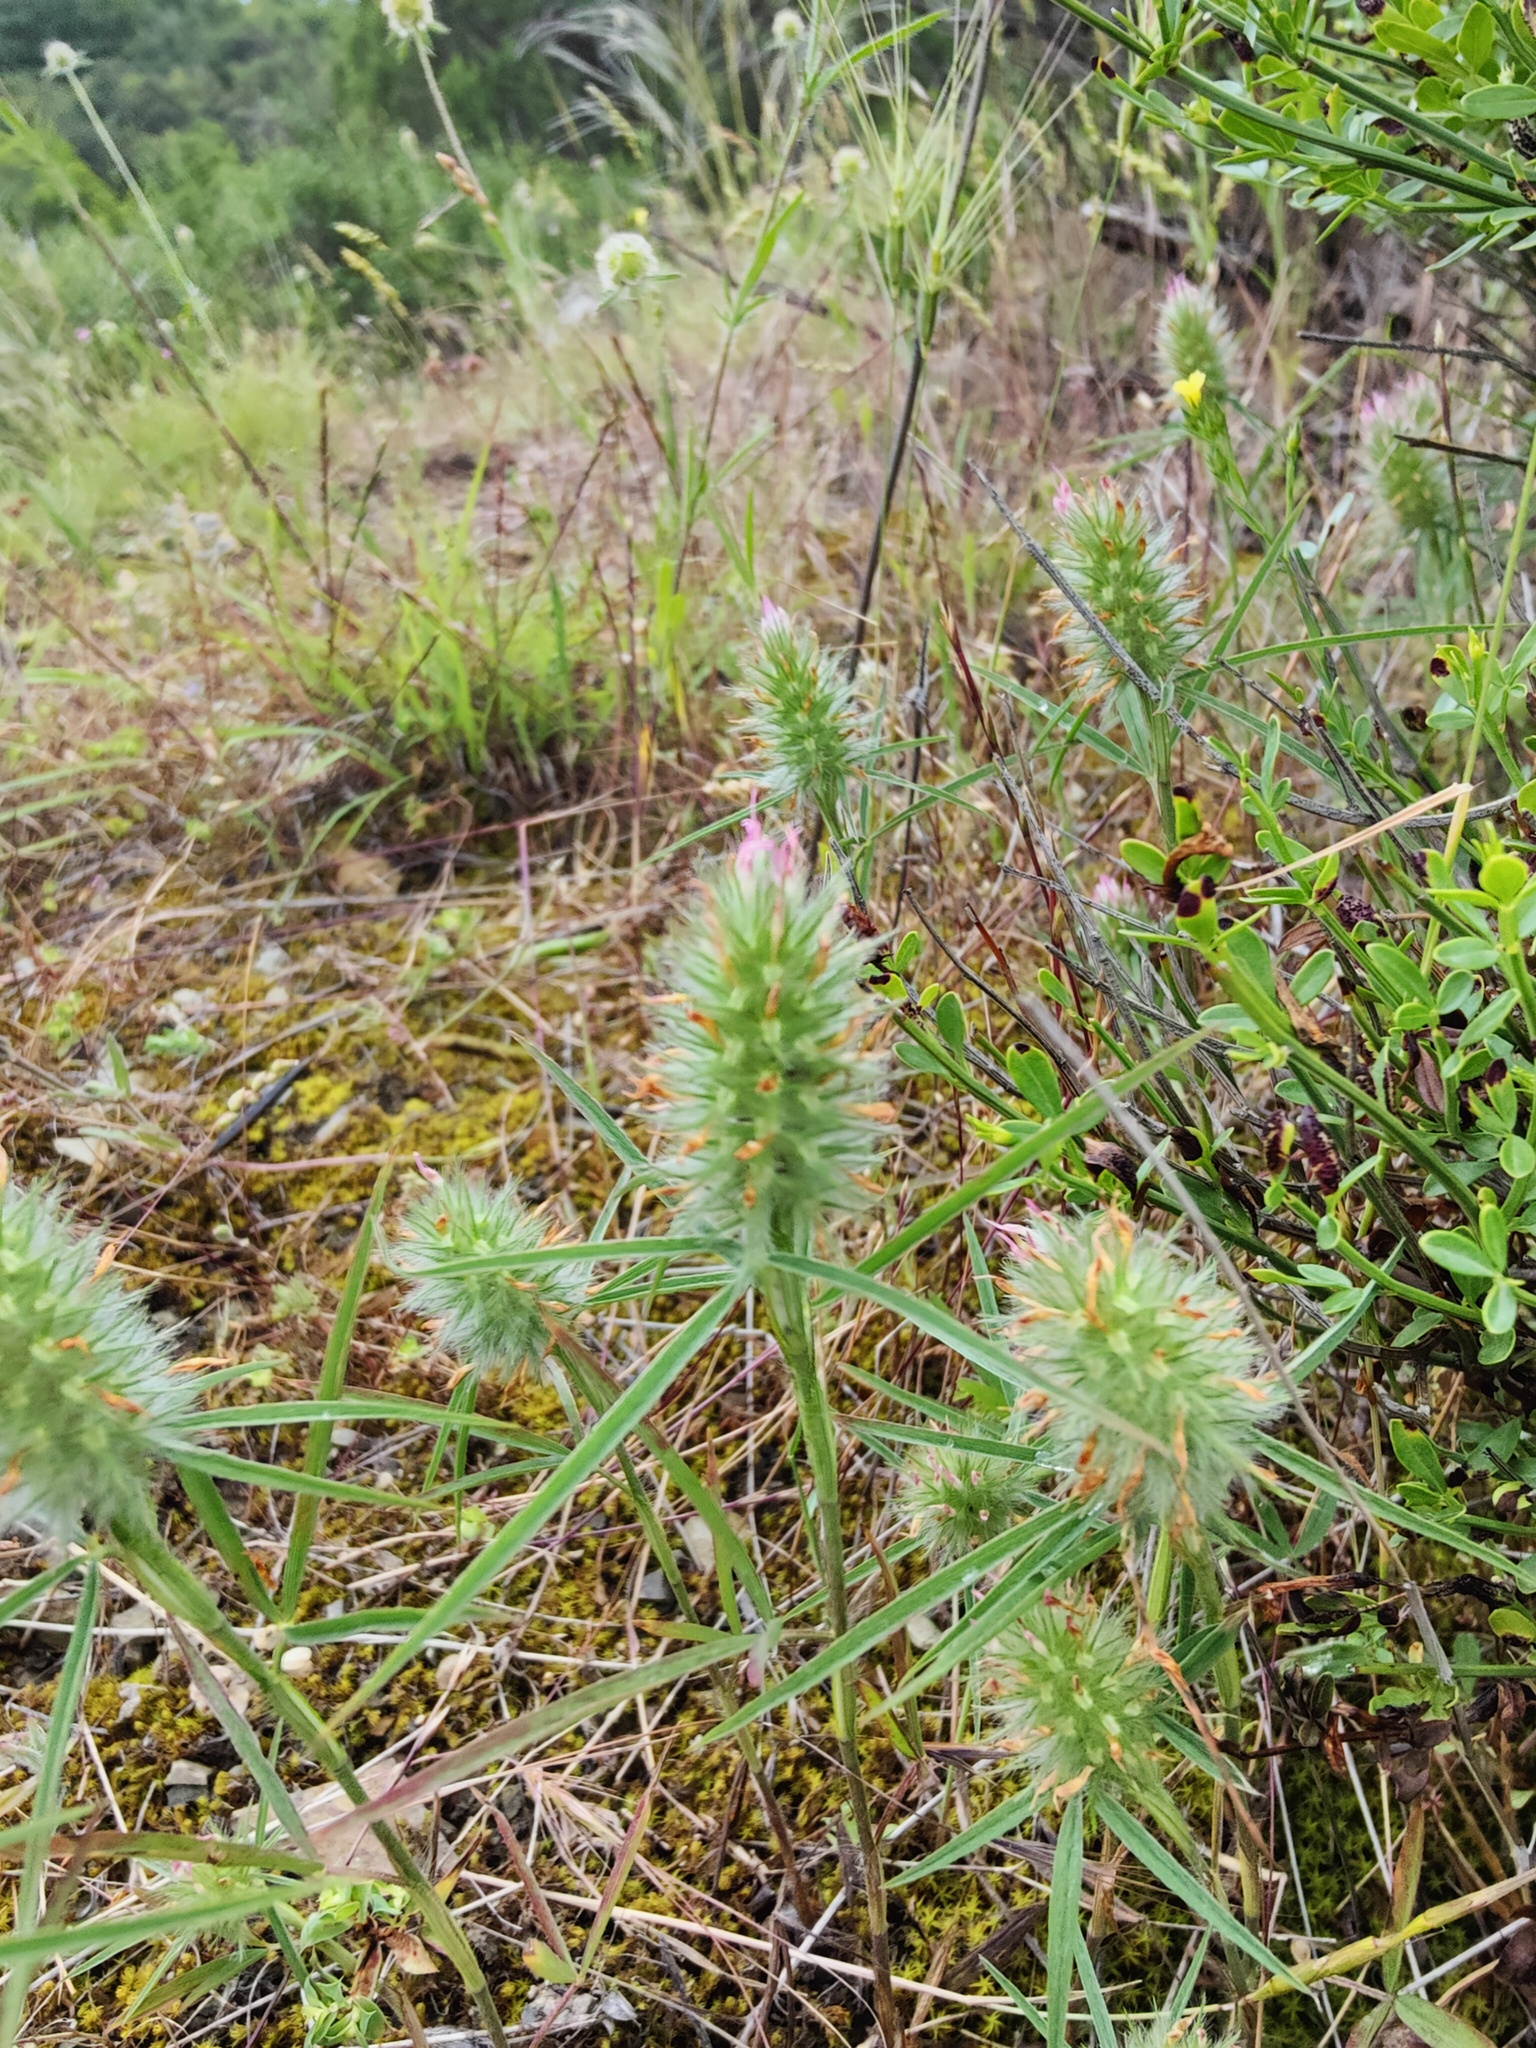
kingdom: Plantae
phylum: Tracheophyta
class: Magnoliopsida
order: Fabales
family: Fabaceae
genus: Trifolium
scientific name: Trifolium angustifolium
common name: Narrow clover
